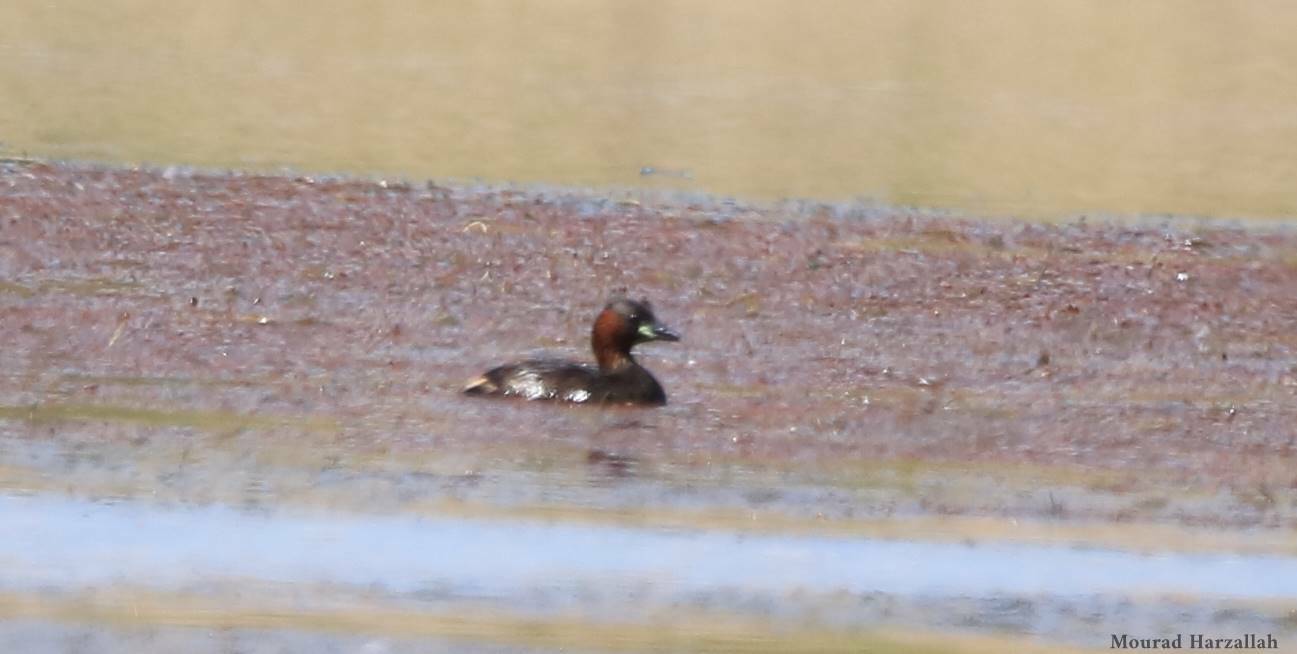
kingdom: Animalia
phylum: Chordata
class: Aves
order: Podicipediformes
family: Podicipedidae
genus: Tachybaptus
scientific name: Tachybaptus ruficollis
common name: Little grebe
